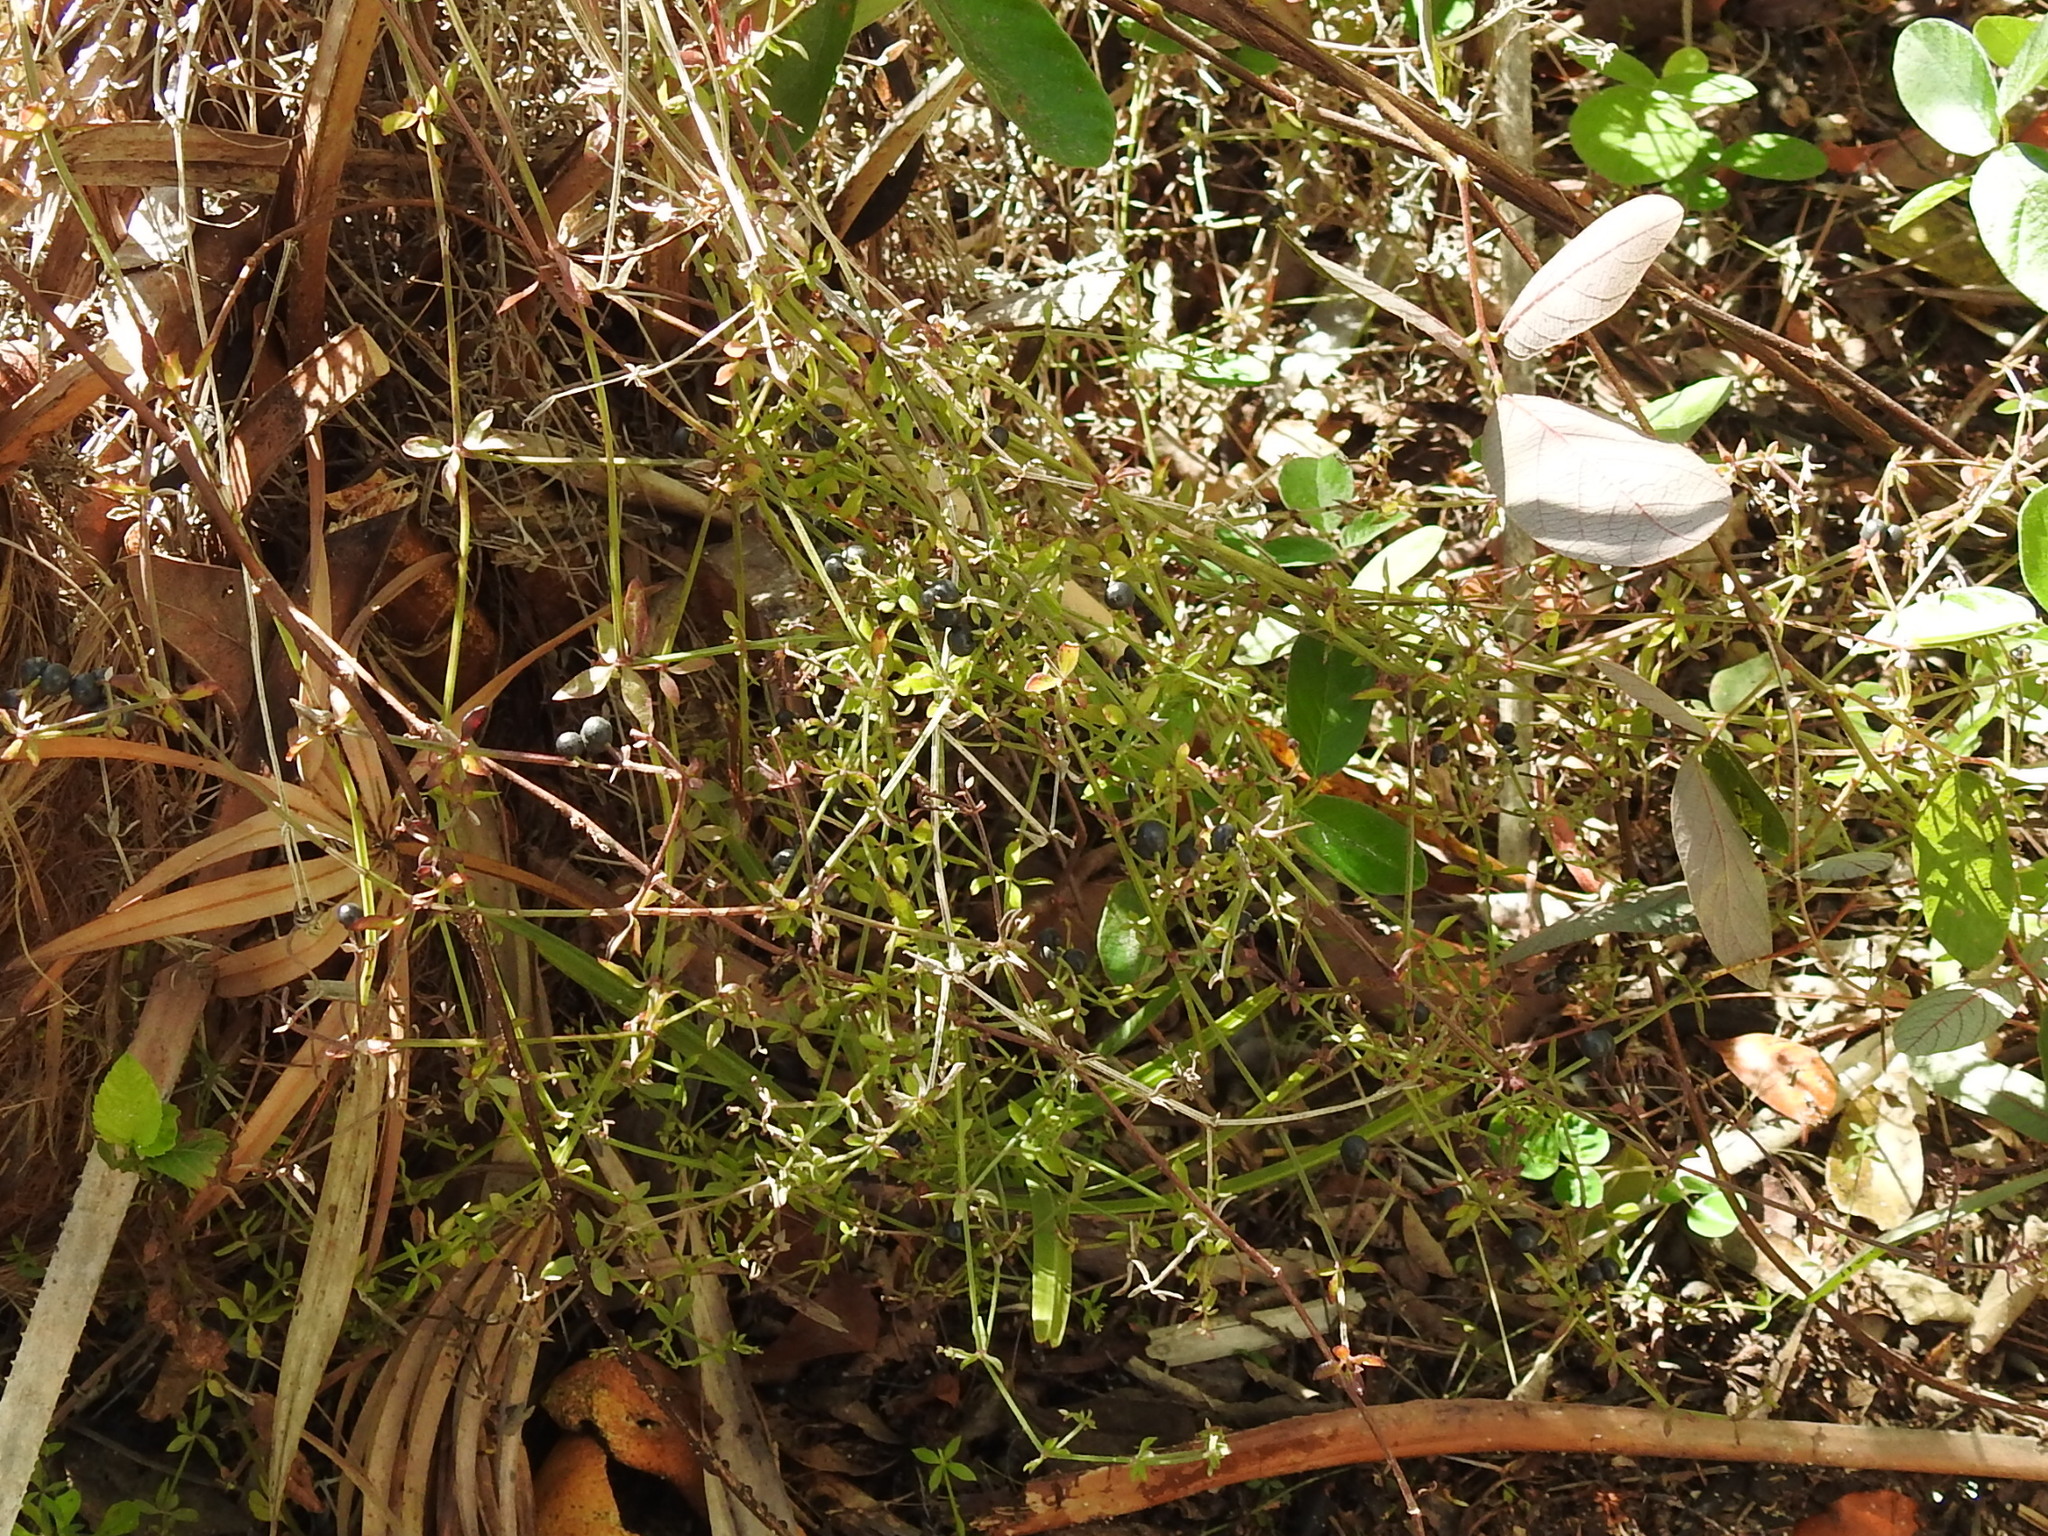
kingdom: Plantae
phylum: Tracheophyta
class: Magnoliopsida
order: Gentianales
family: Rubiaceae
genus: Galium
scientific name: Galium bermudense
